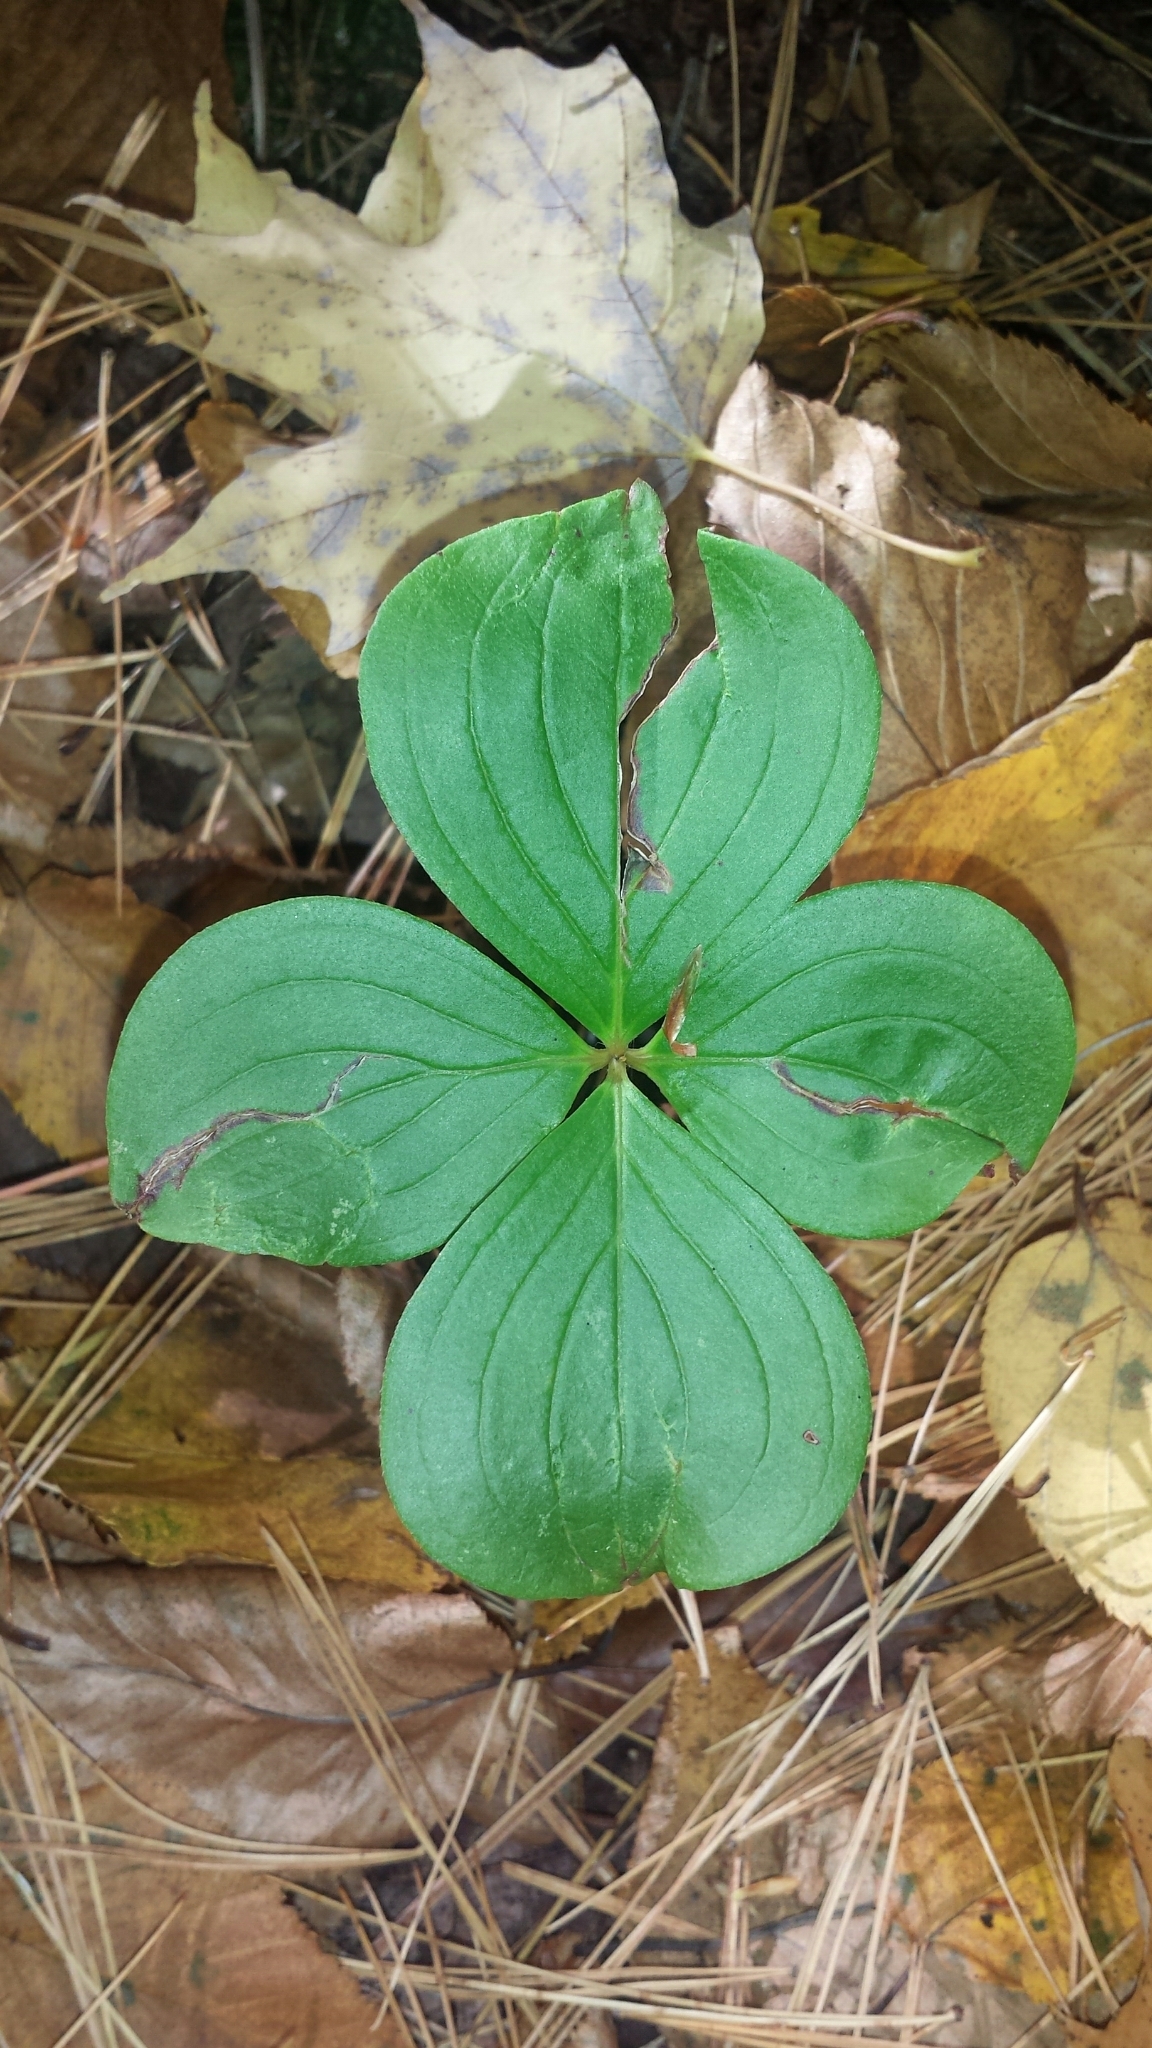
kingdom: Plantae
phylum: Tracheophyta
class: Magnoliopsida
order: Cornales
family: Cornaceae
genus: Cornus
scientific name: Cornus canadensis
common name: Creeping dogwood
